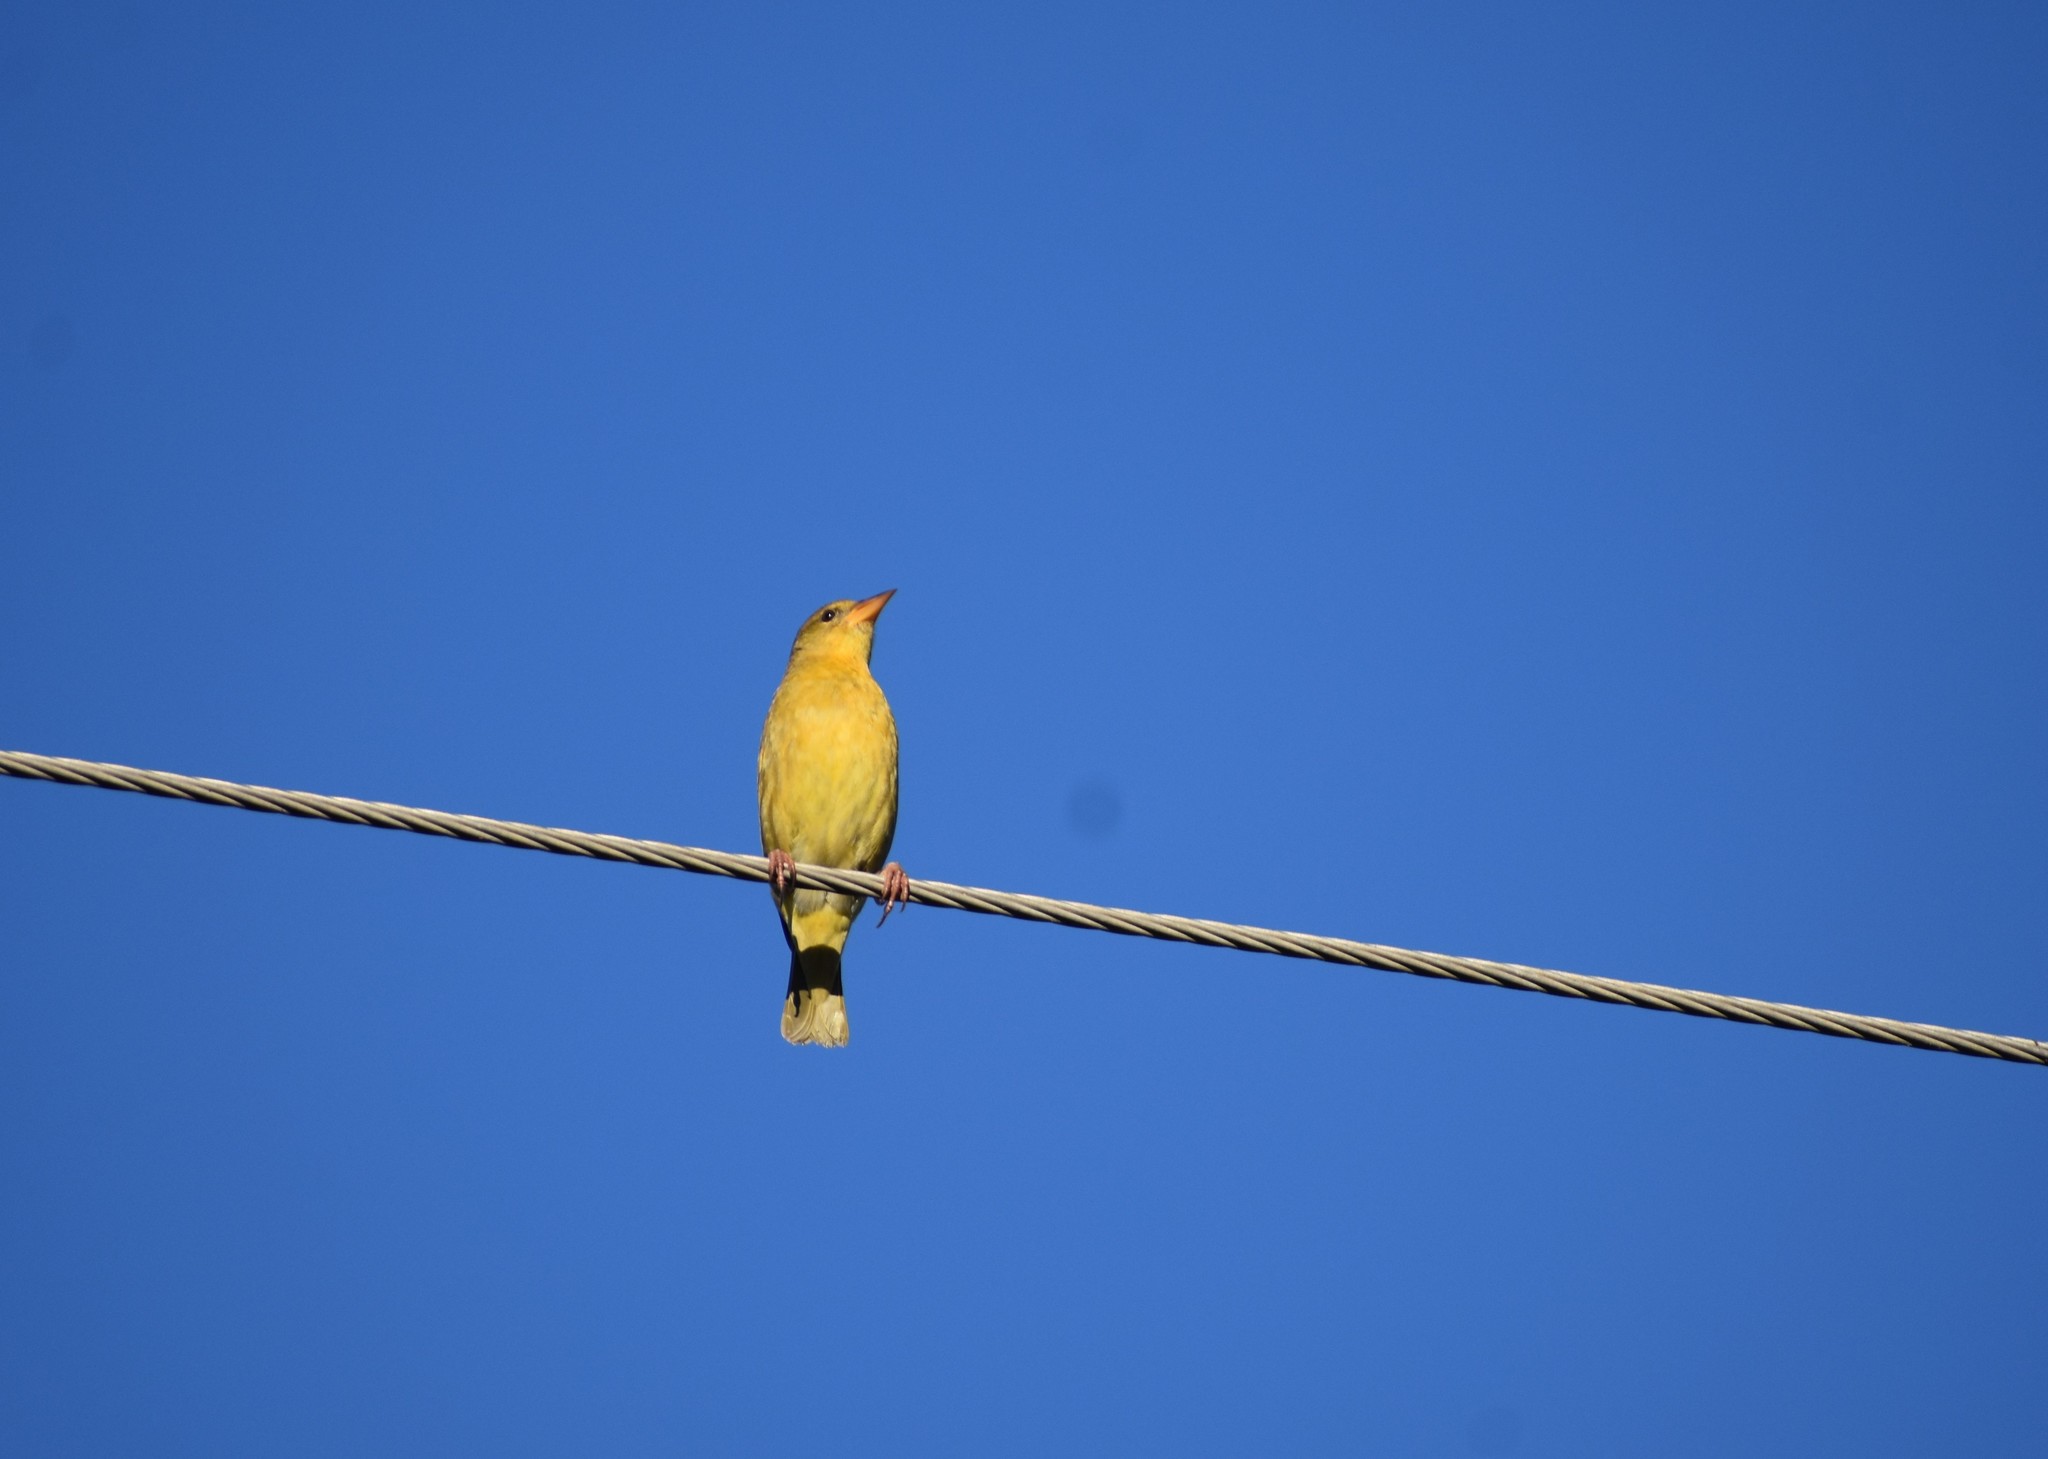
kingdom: Animalia
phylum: Chordata
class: Aves
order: Passeriformes
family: Ploceidae
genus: Ploceus
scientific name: Ploceus capensis
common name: Cape weaver
